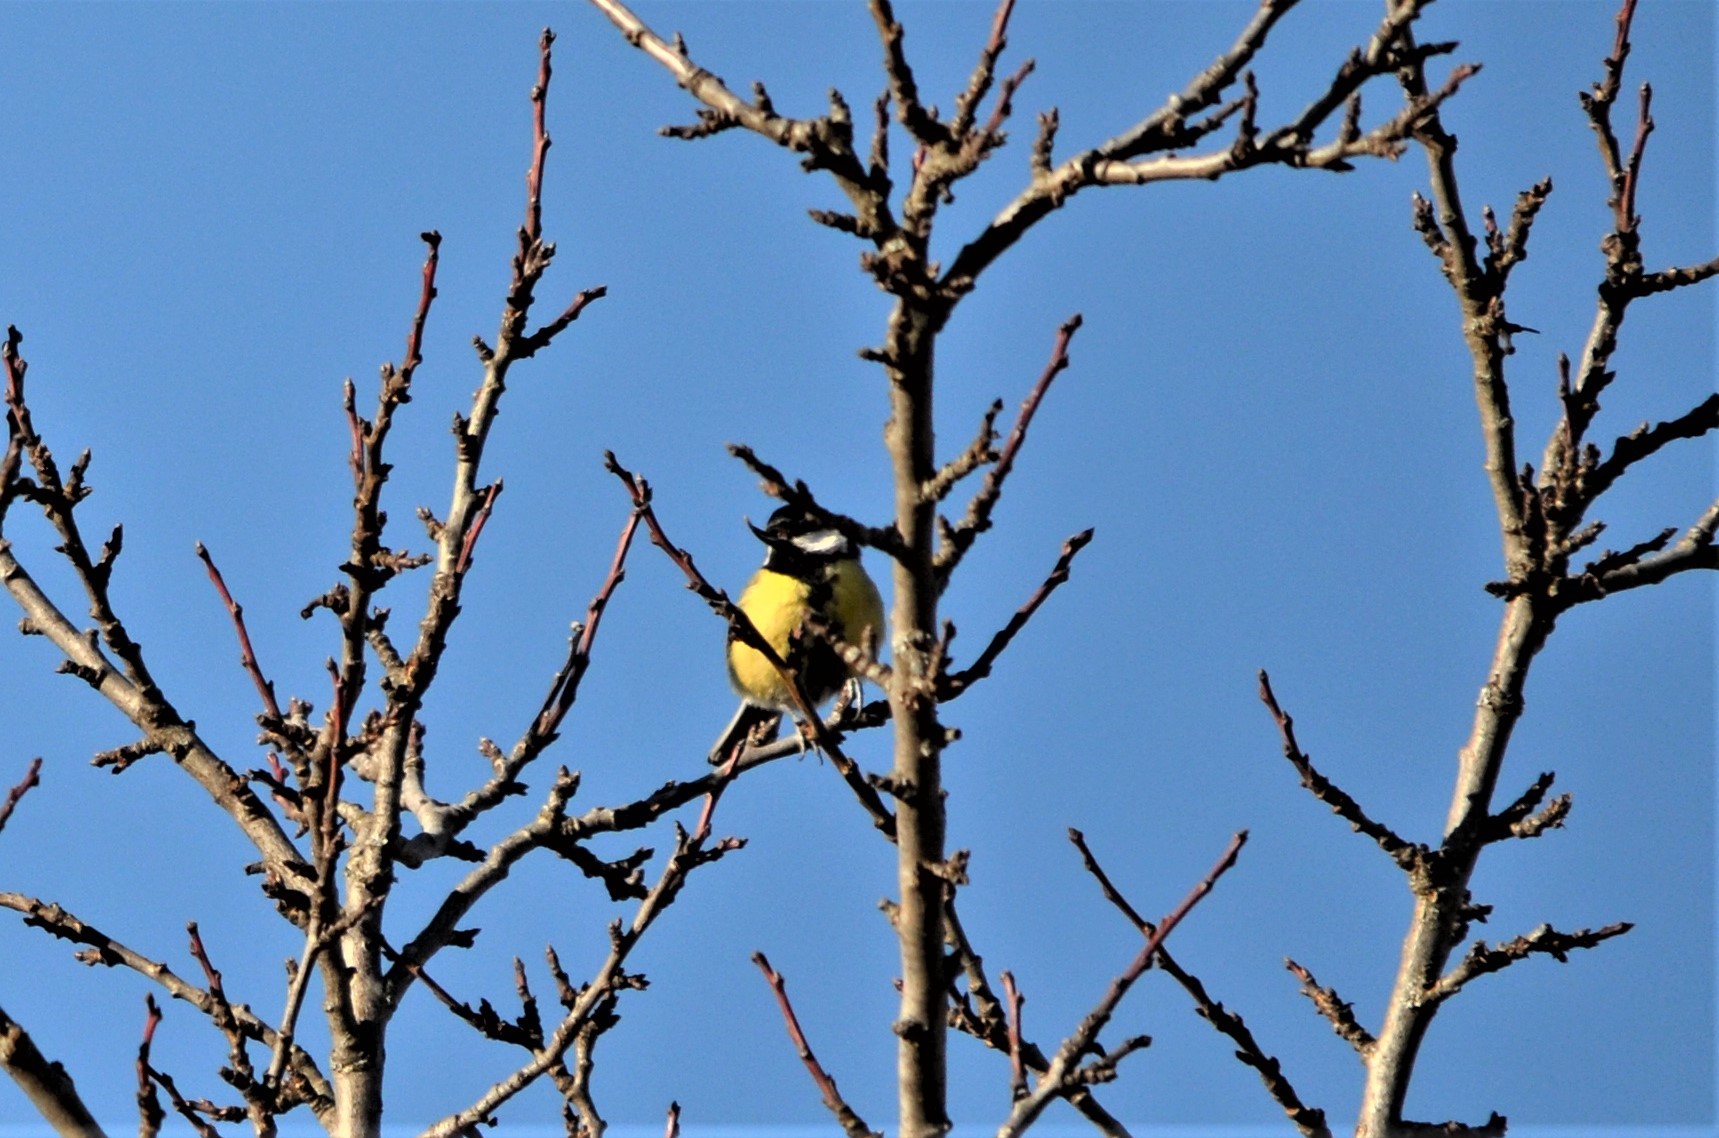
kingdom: Animalia
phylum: Chordata
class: Aves
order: Passeriformes
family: Paridae
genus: Parus
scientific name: Parus major
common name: Great tit
